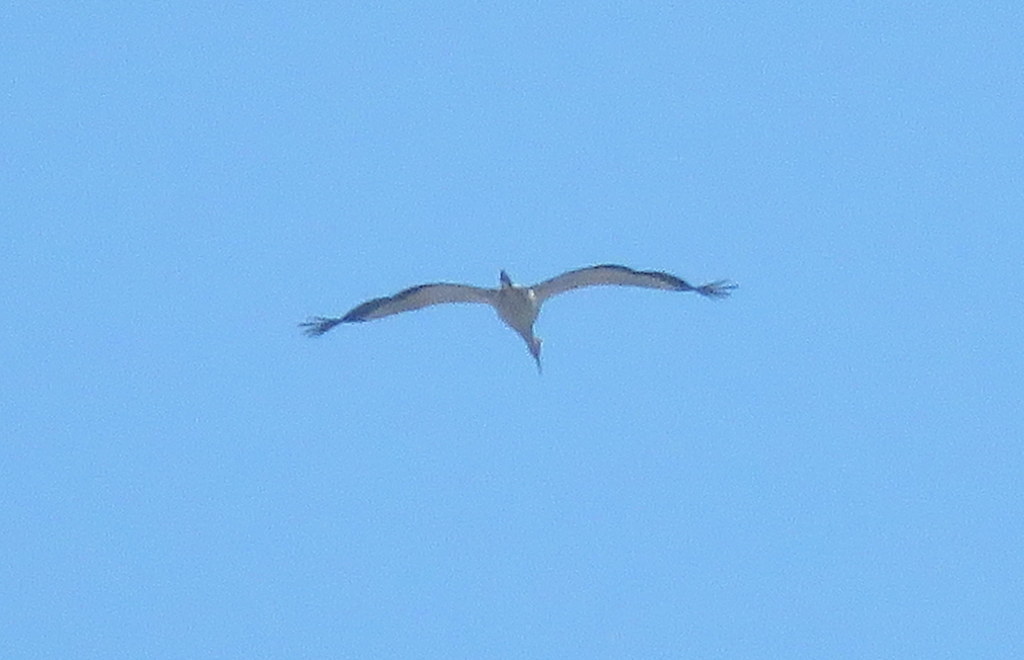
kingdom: Animalia
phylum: Chordata
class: Aves
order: Ciconiiformes
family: Ciconiidae
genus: Mycteria
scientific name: Mycteria americana
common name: Wood stork
